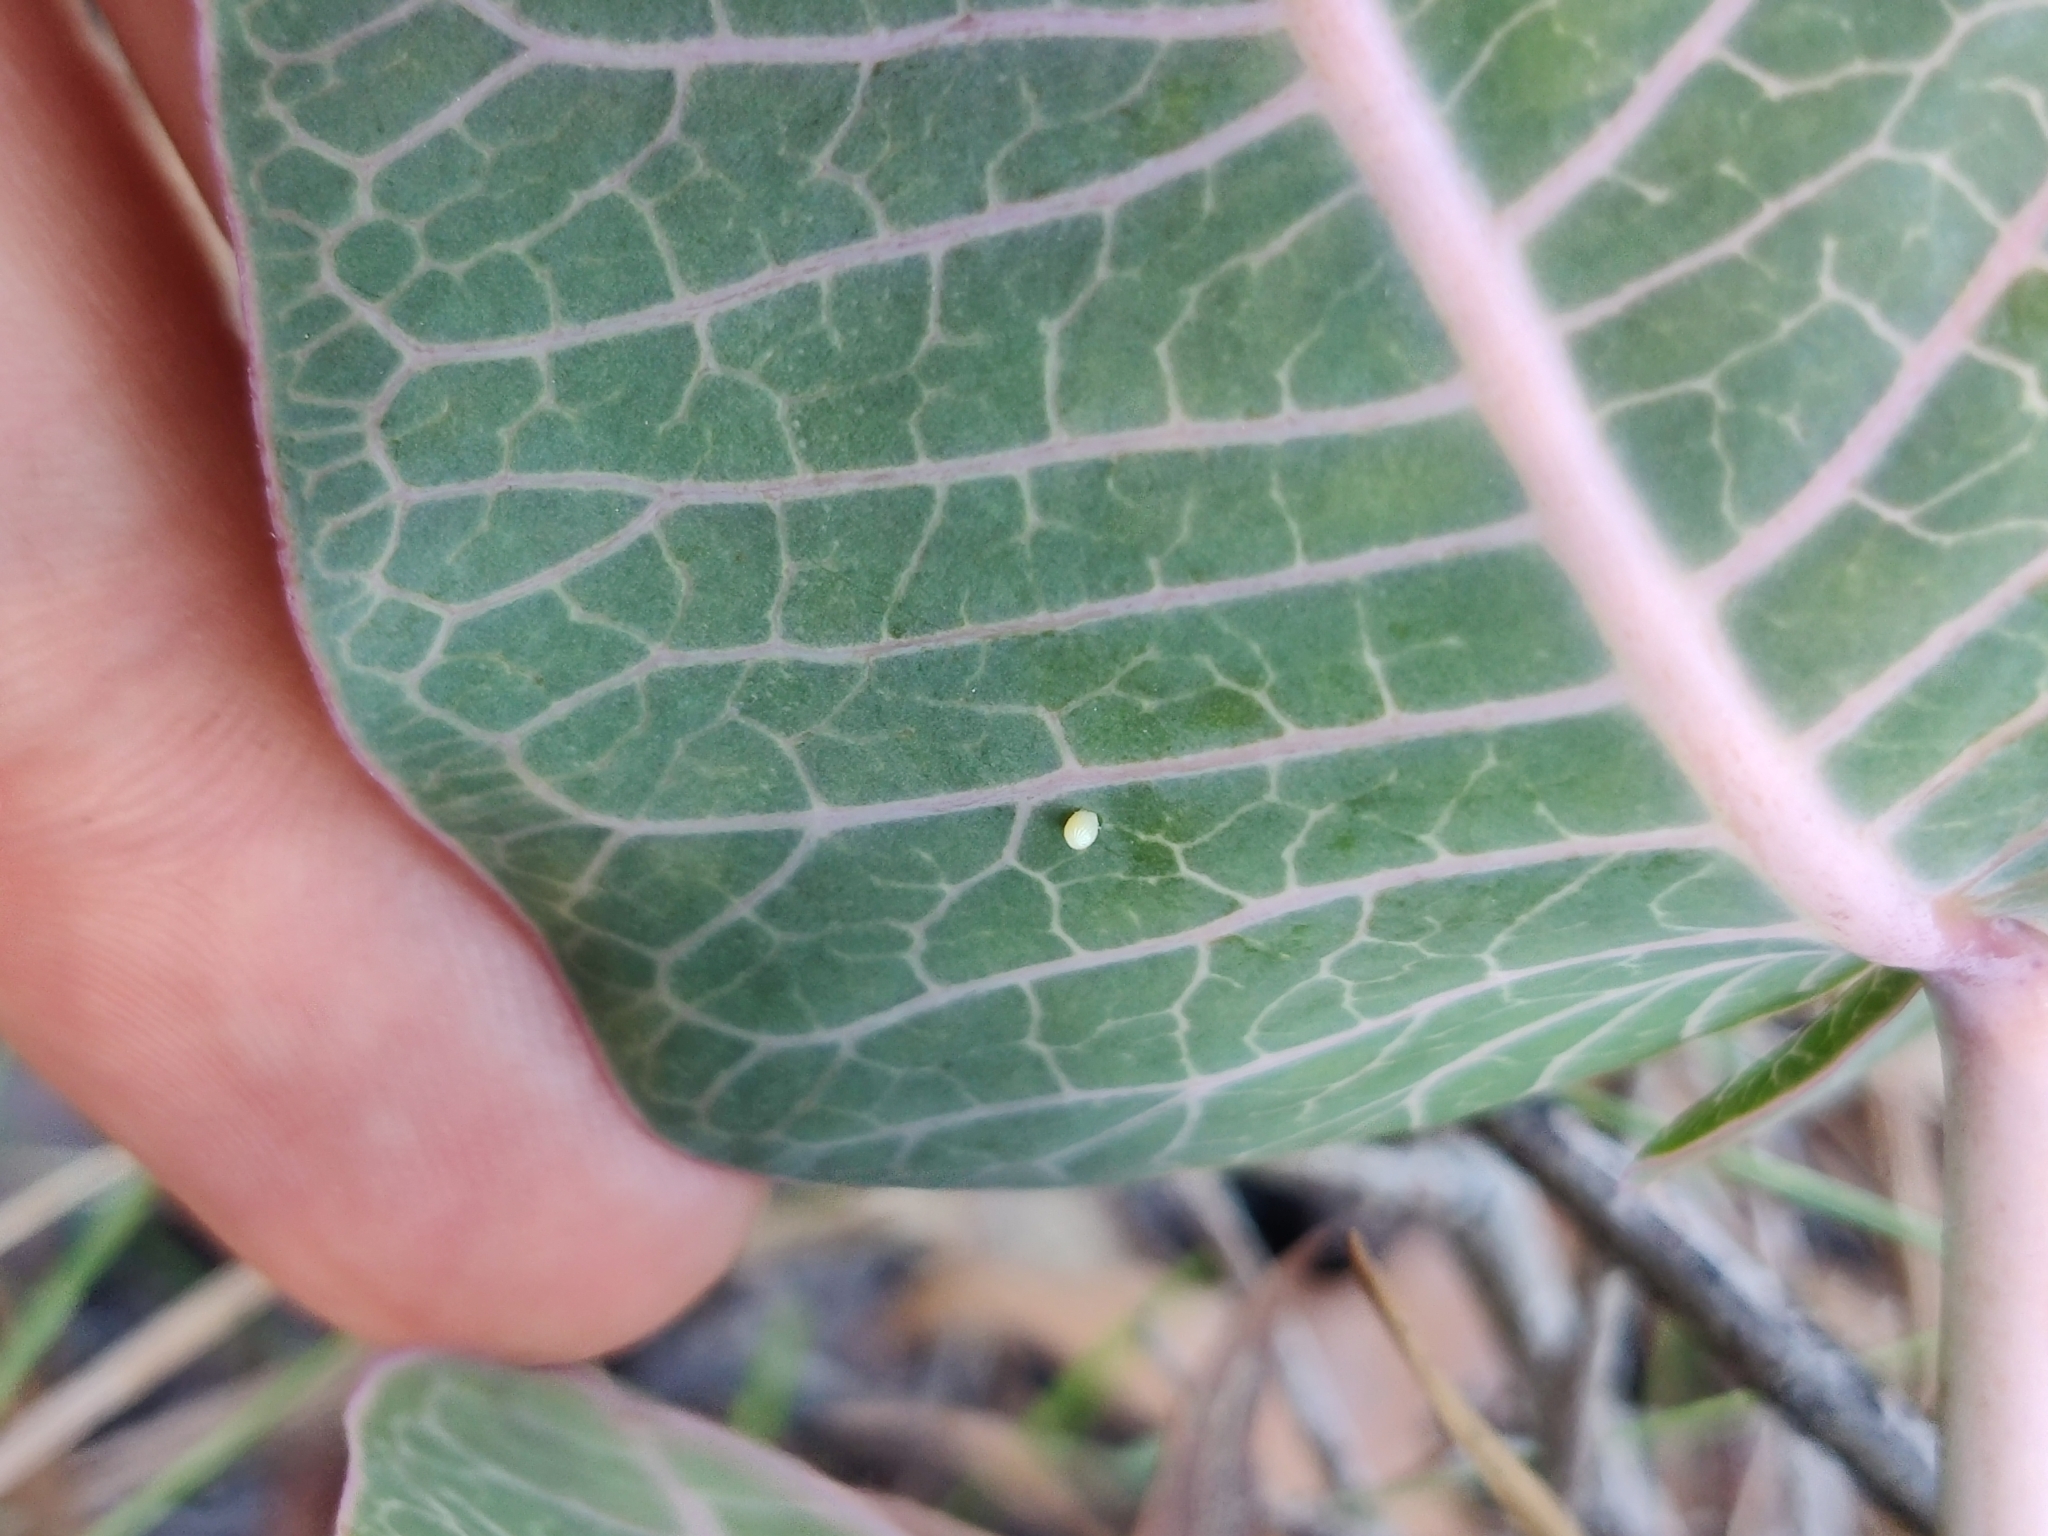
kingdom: Plantae
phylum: Tracheophyta
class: Magnoliopsida
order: Gentianales
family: Apocynaceae
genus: Asclepias
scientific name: Asclepias humistrata
